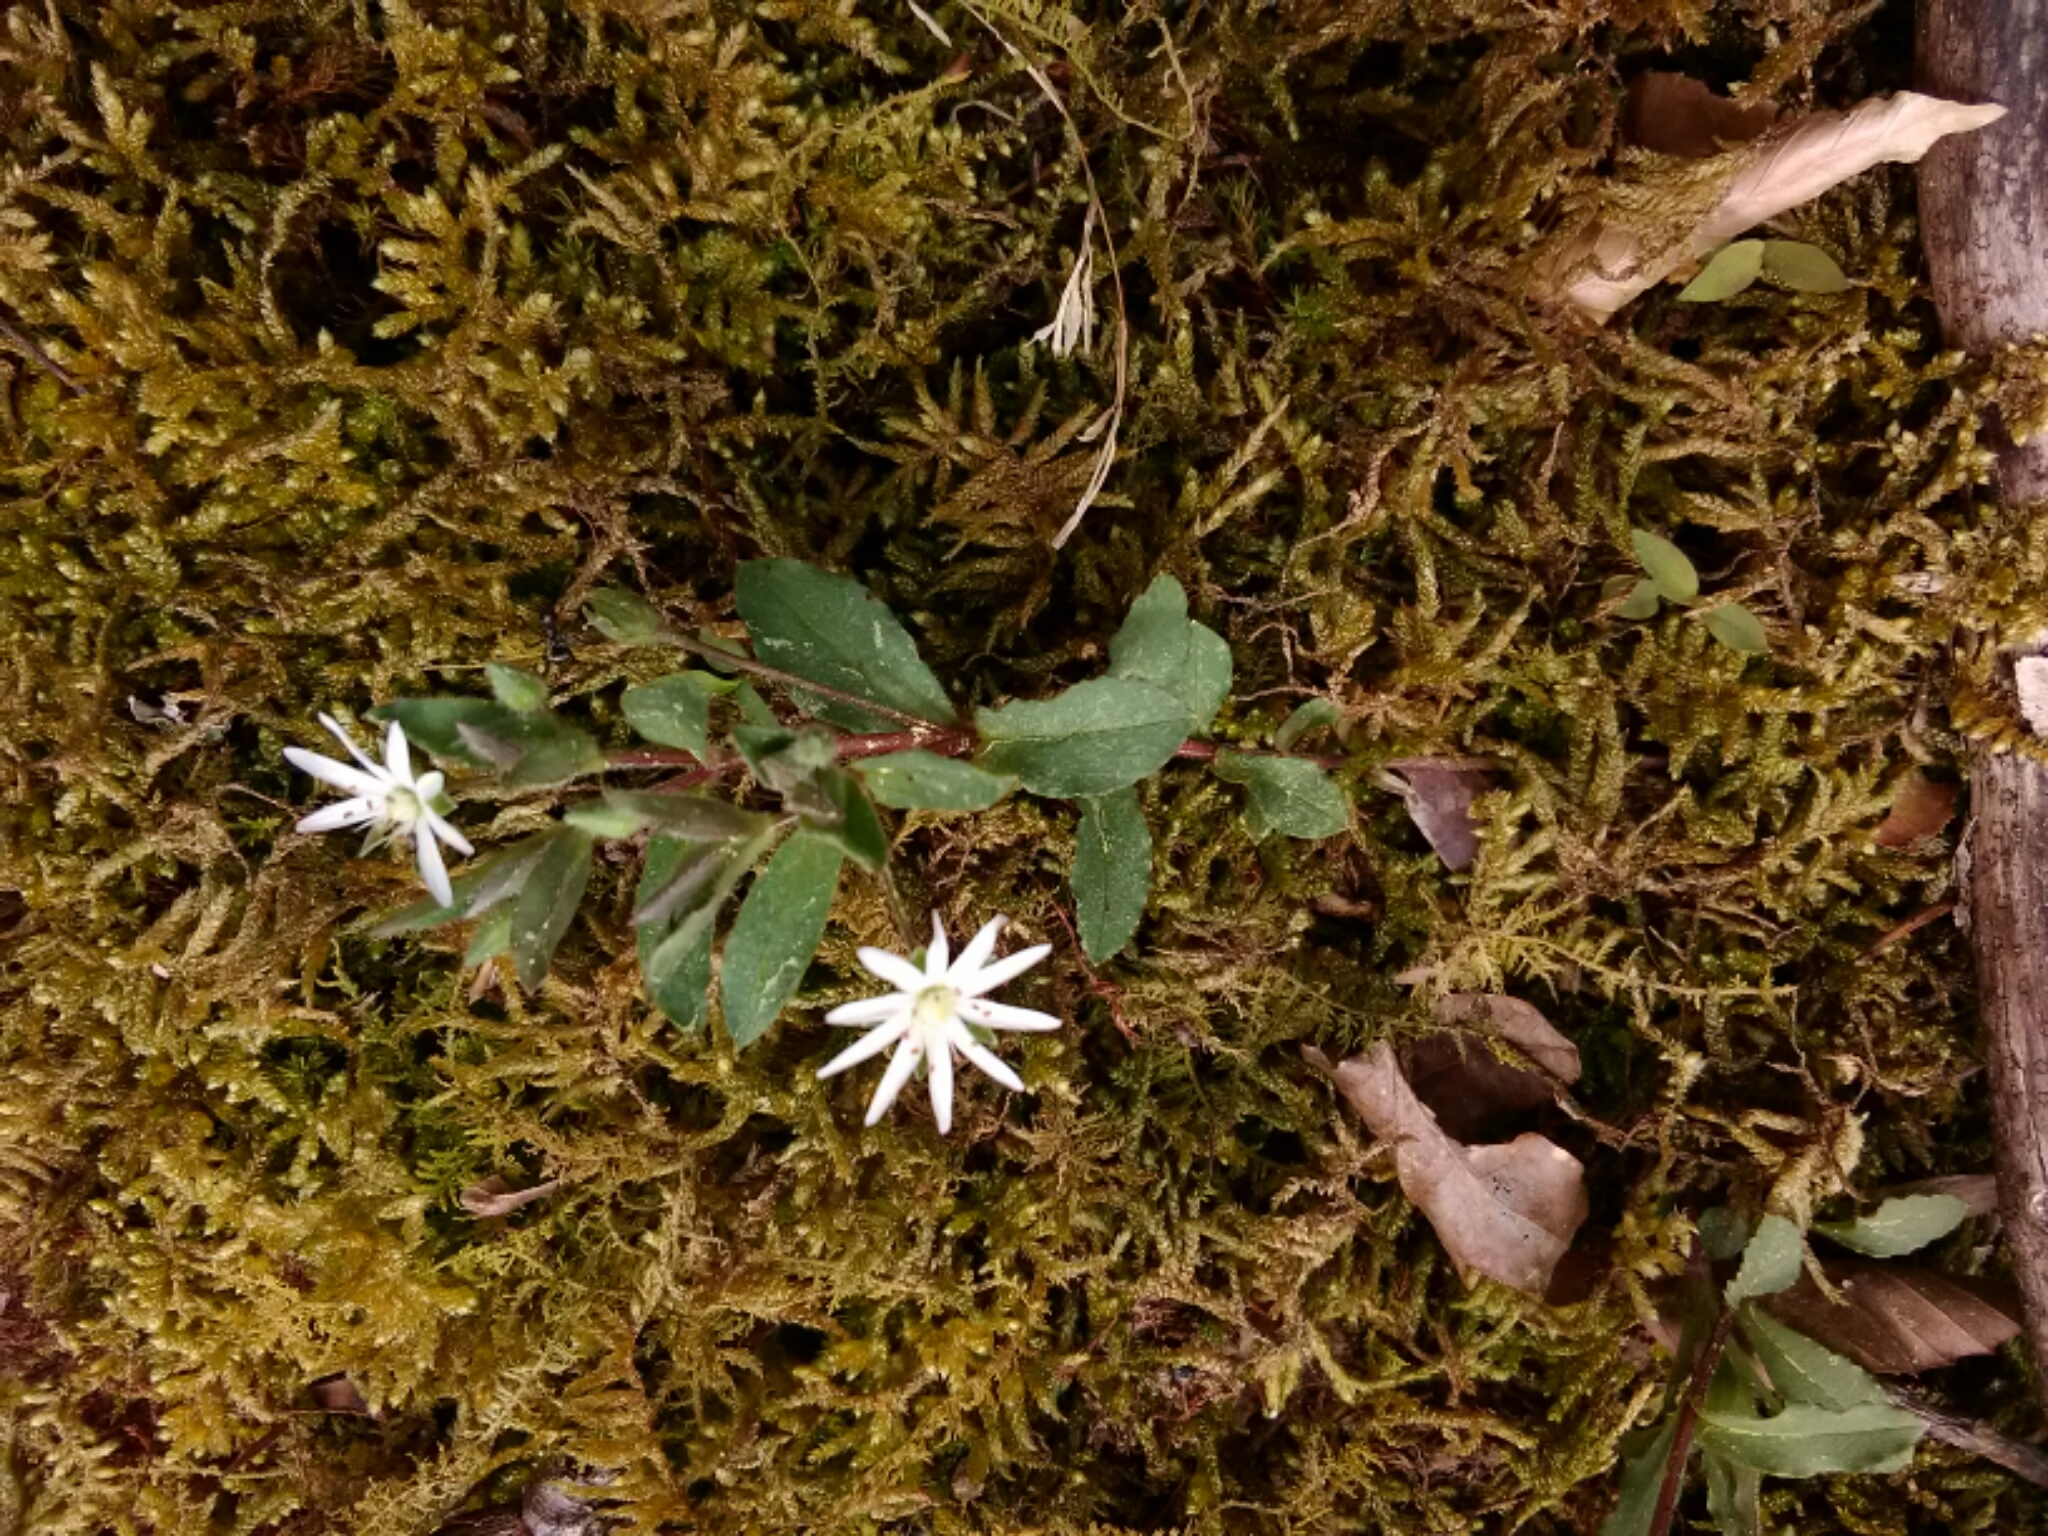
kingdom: Plantae
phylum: Tracheophyta
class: Magnoliopsida
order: Caryophyllales
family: Caryophyllaceae
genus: Stellaria
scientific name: Stellaria pubera
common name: Star chickweed
